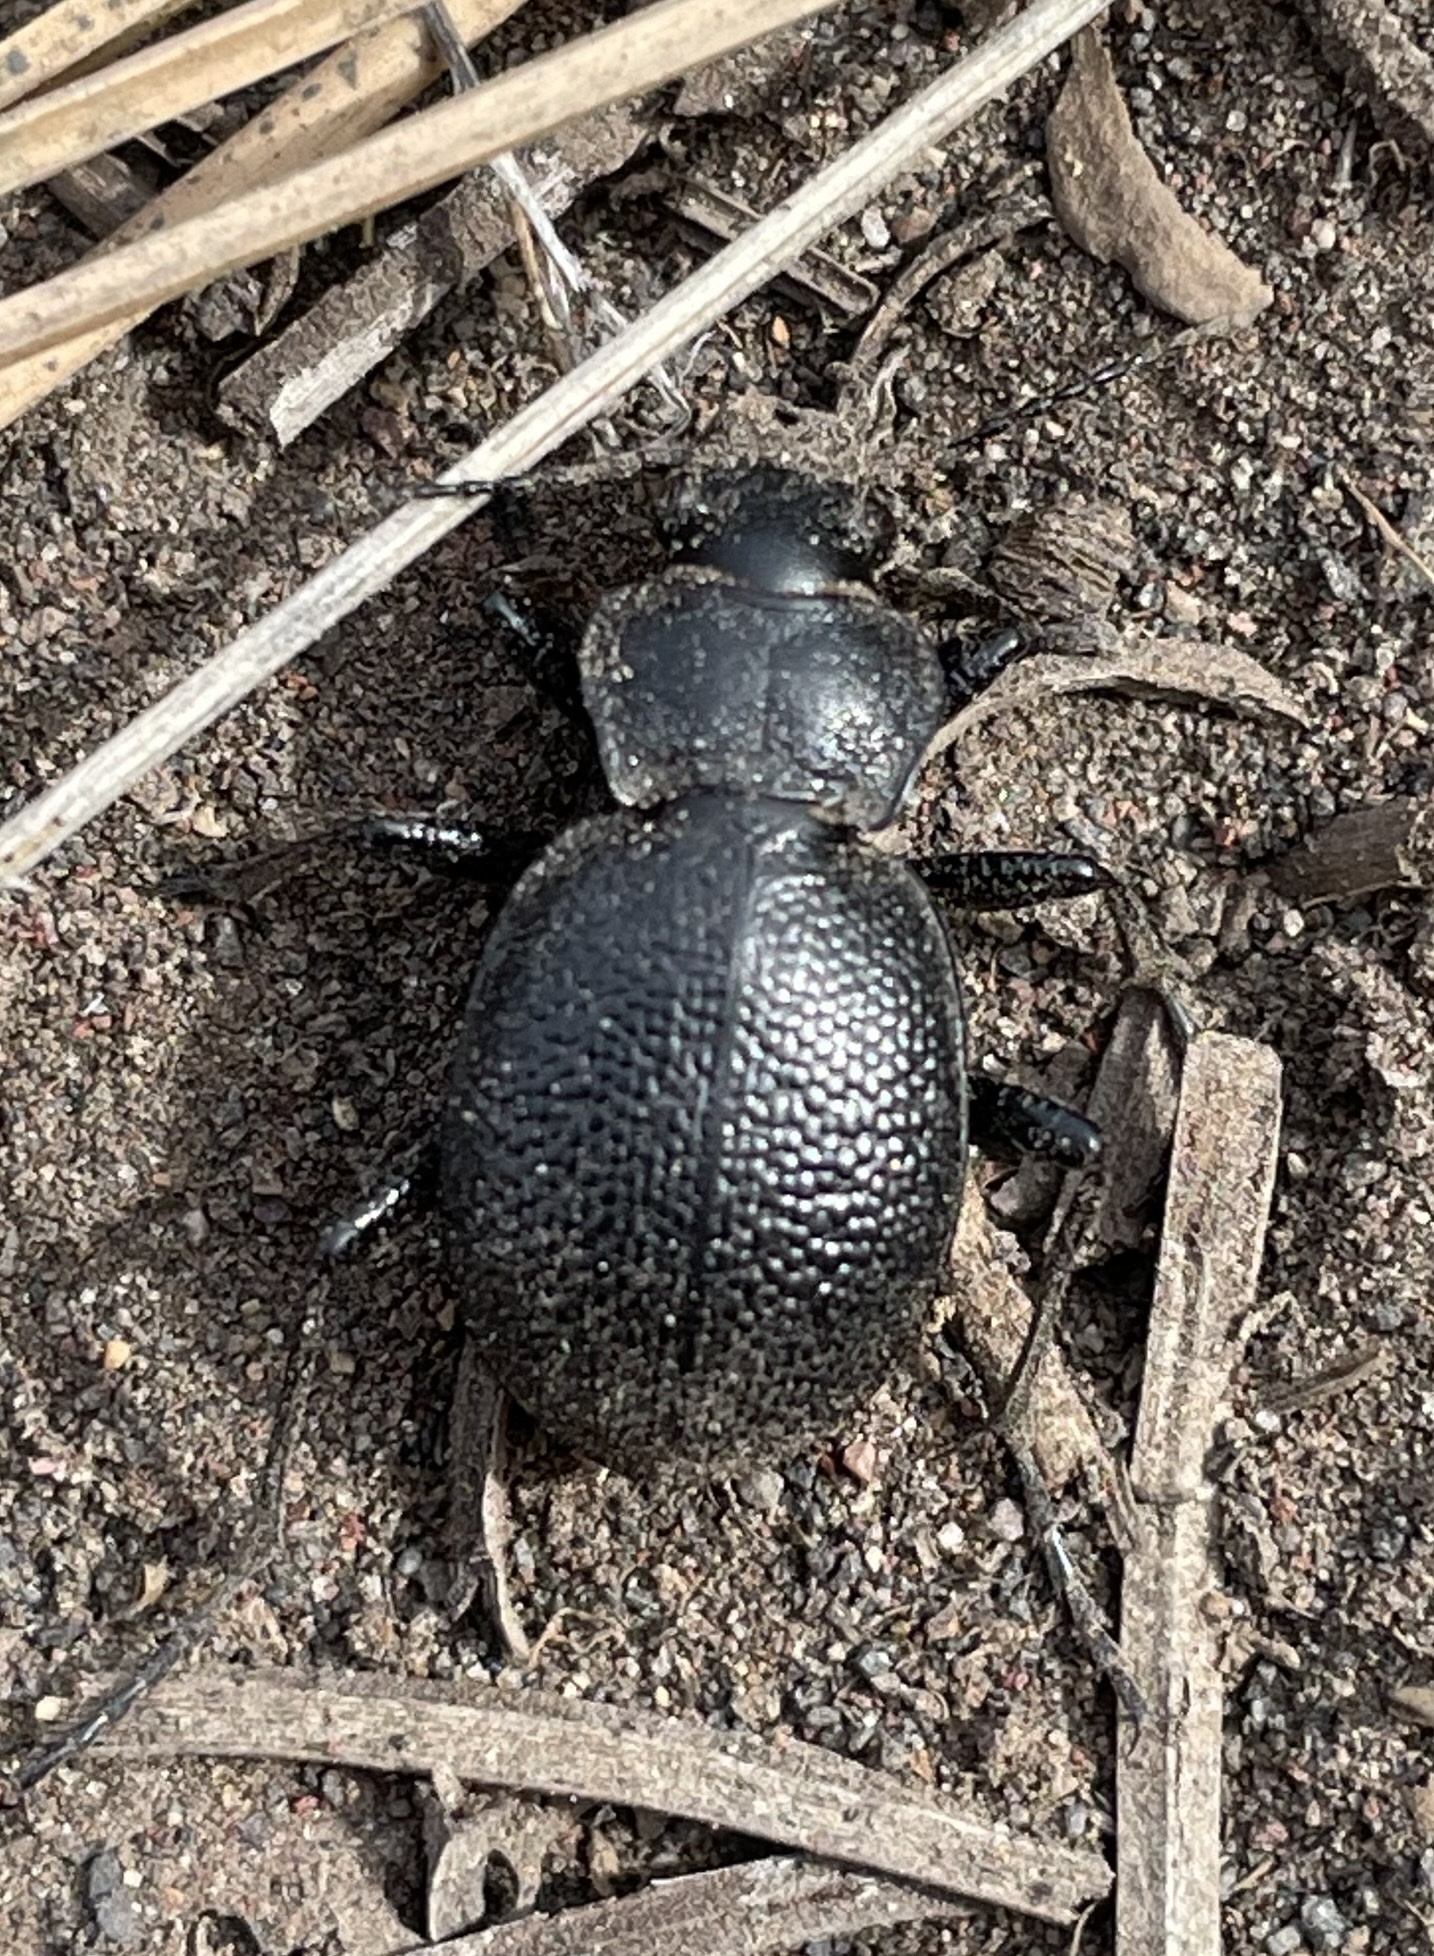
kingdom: Animalia
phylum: Arthropoda
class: Insecta
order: Coleoptera
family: Carabidae
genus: Calosoma
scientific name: Calosoma luxatum
